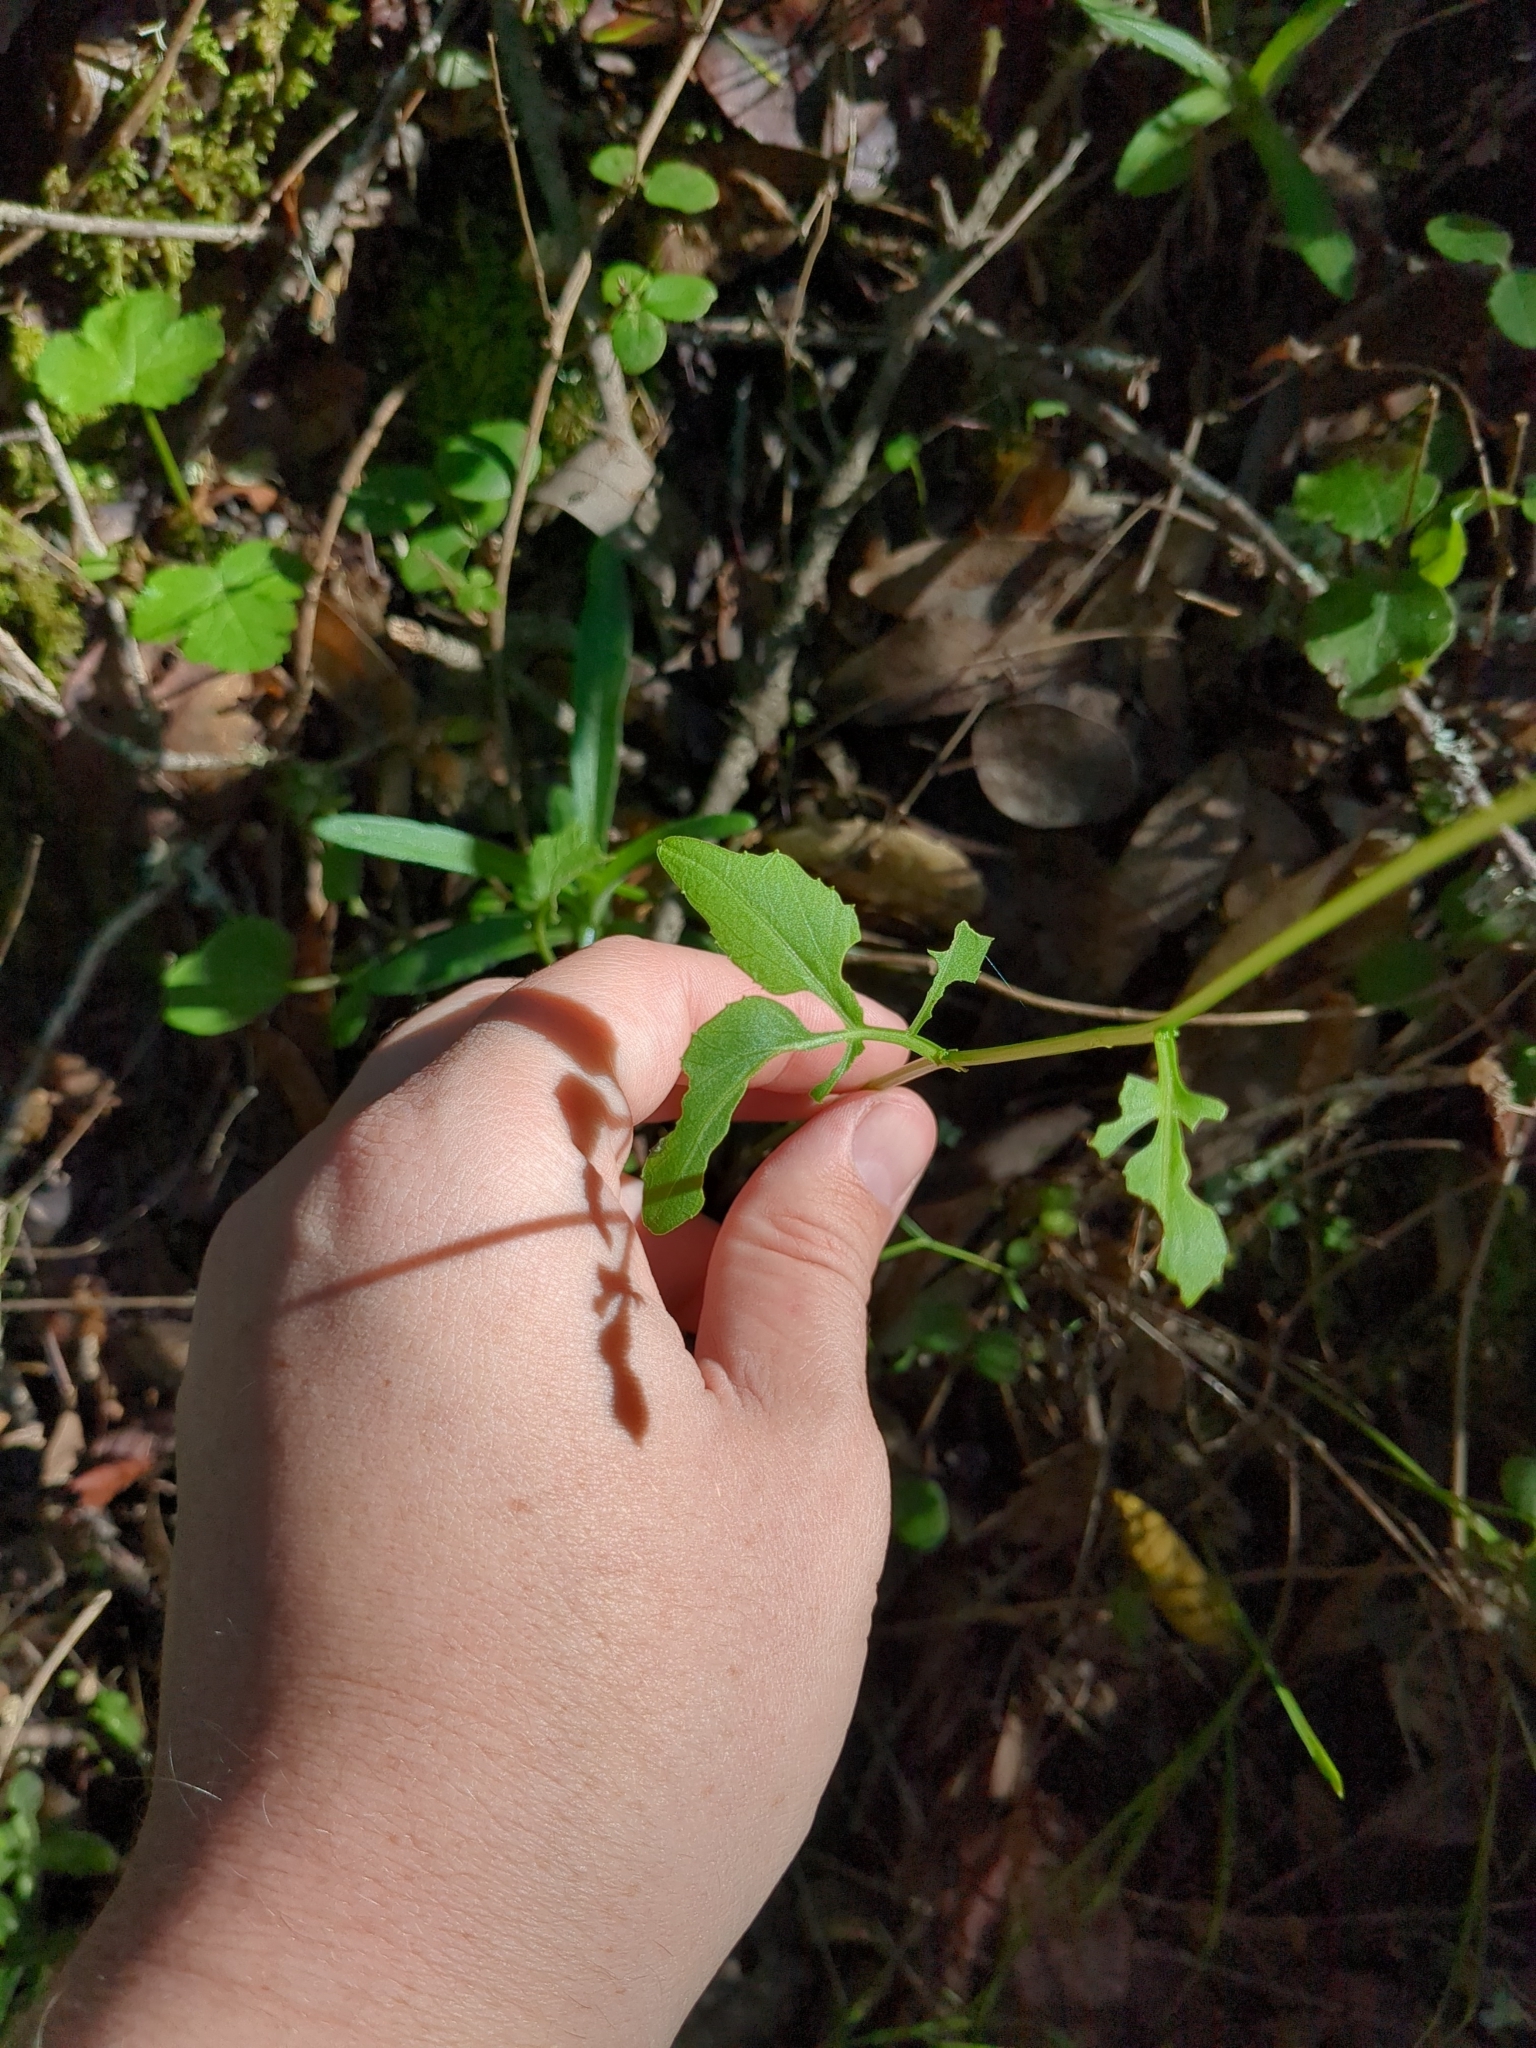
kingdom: Plantae
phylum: Tracheophyta
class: Magnoliopsida
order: Brassicales
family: Brassicaceae
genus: Cardamine
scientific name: Cardamine californica
